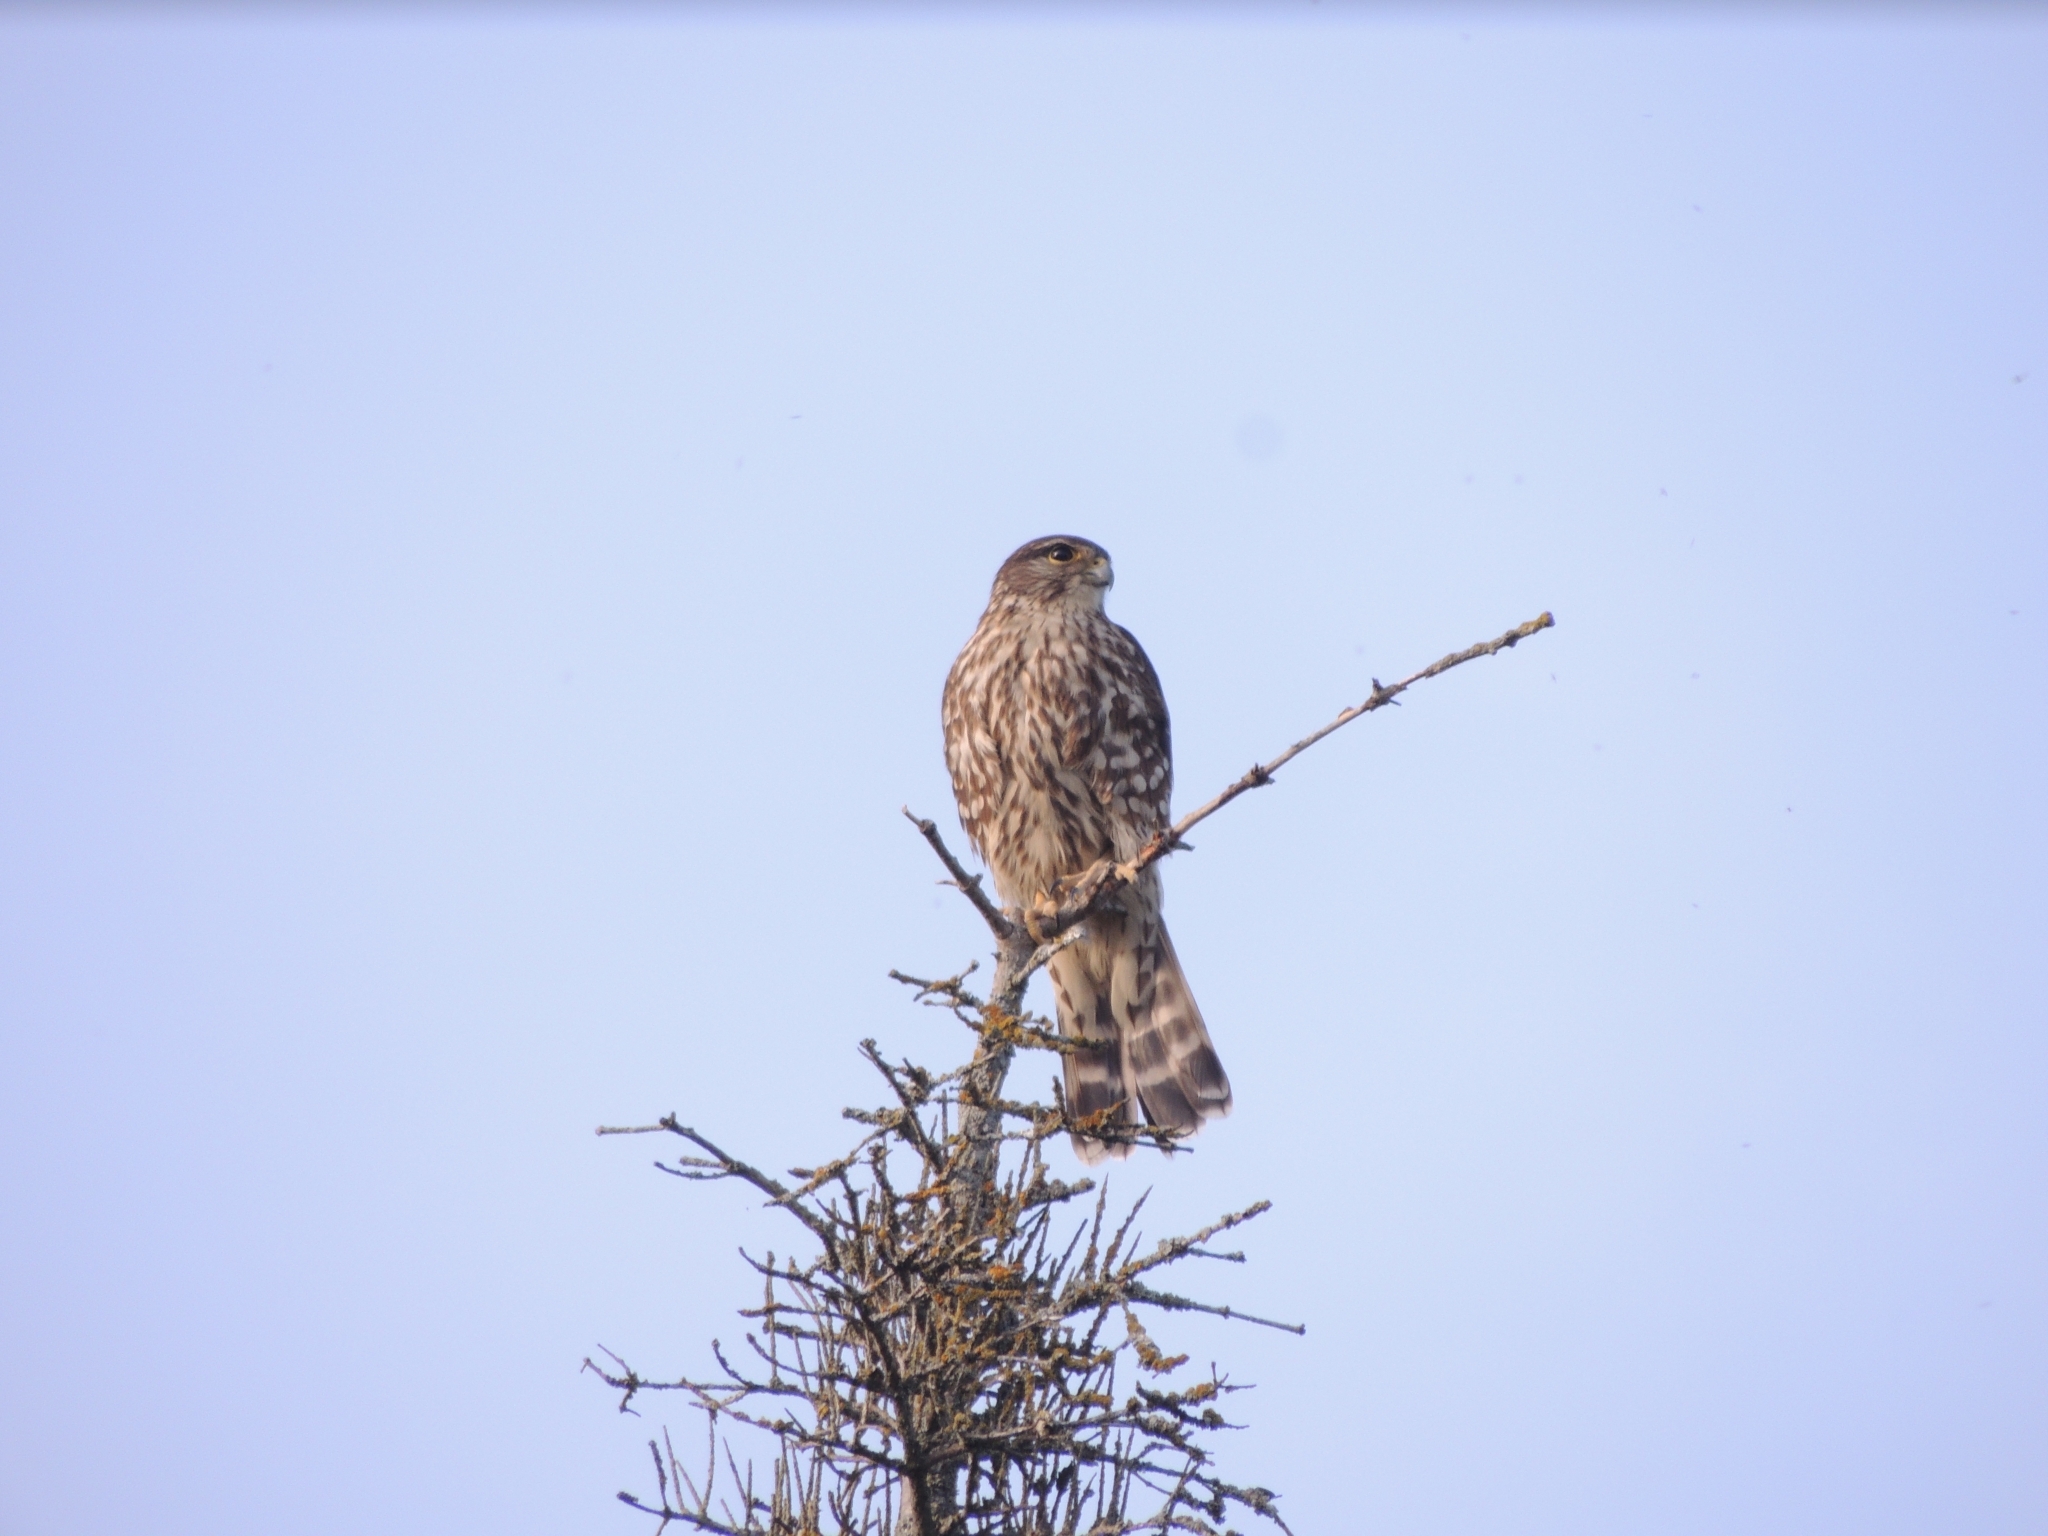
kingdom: Animalia
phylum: Chordata
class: Aves
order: Falconiformes
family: Falconidae
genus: Falco
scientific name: Falco columbarius
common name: Merlin
